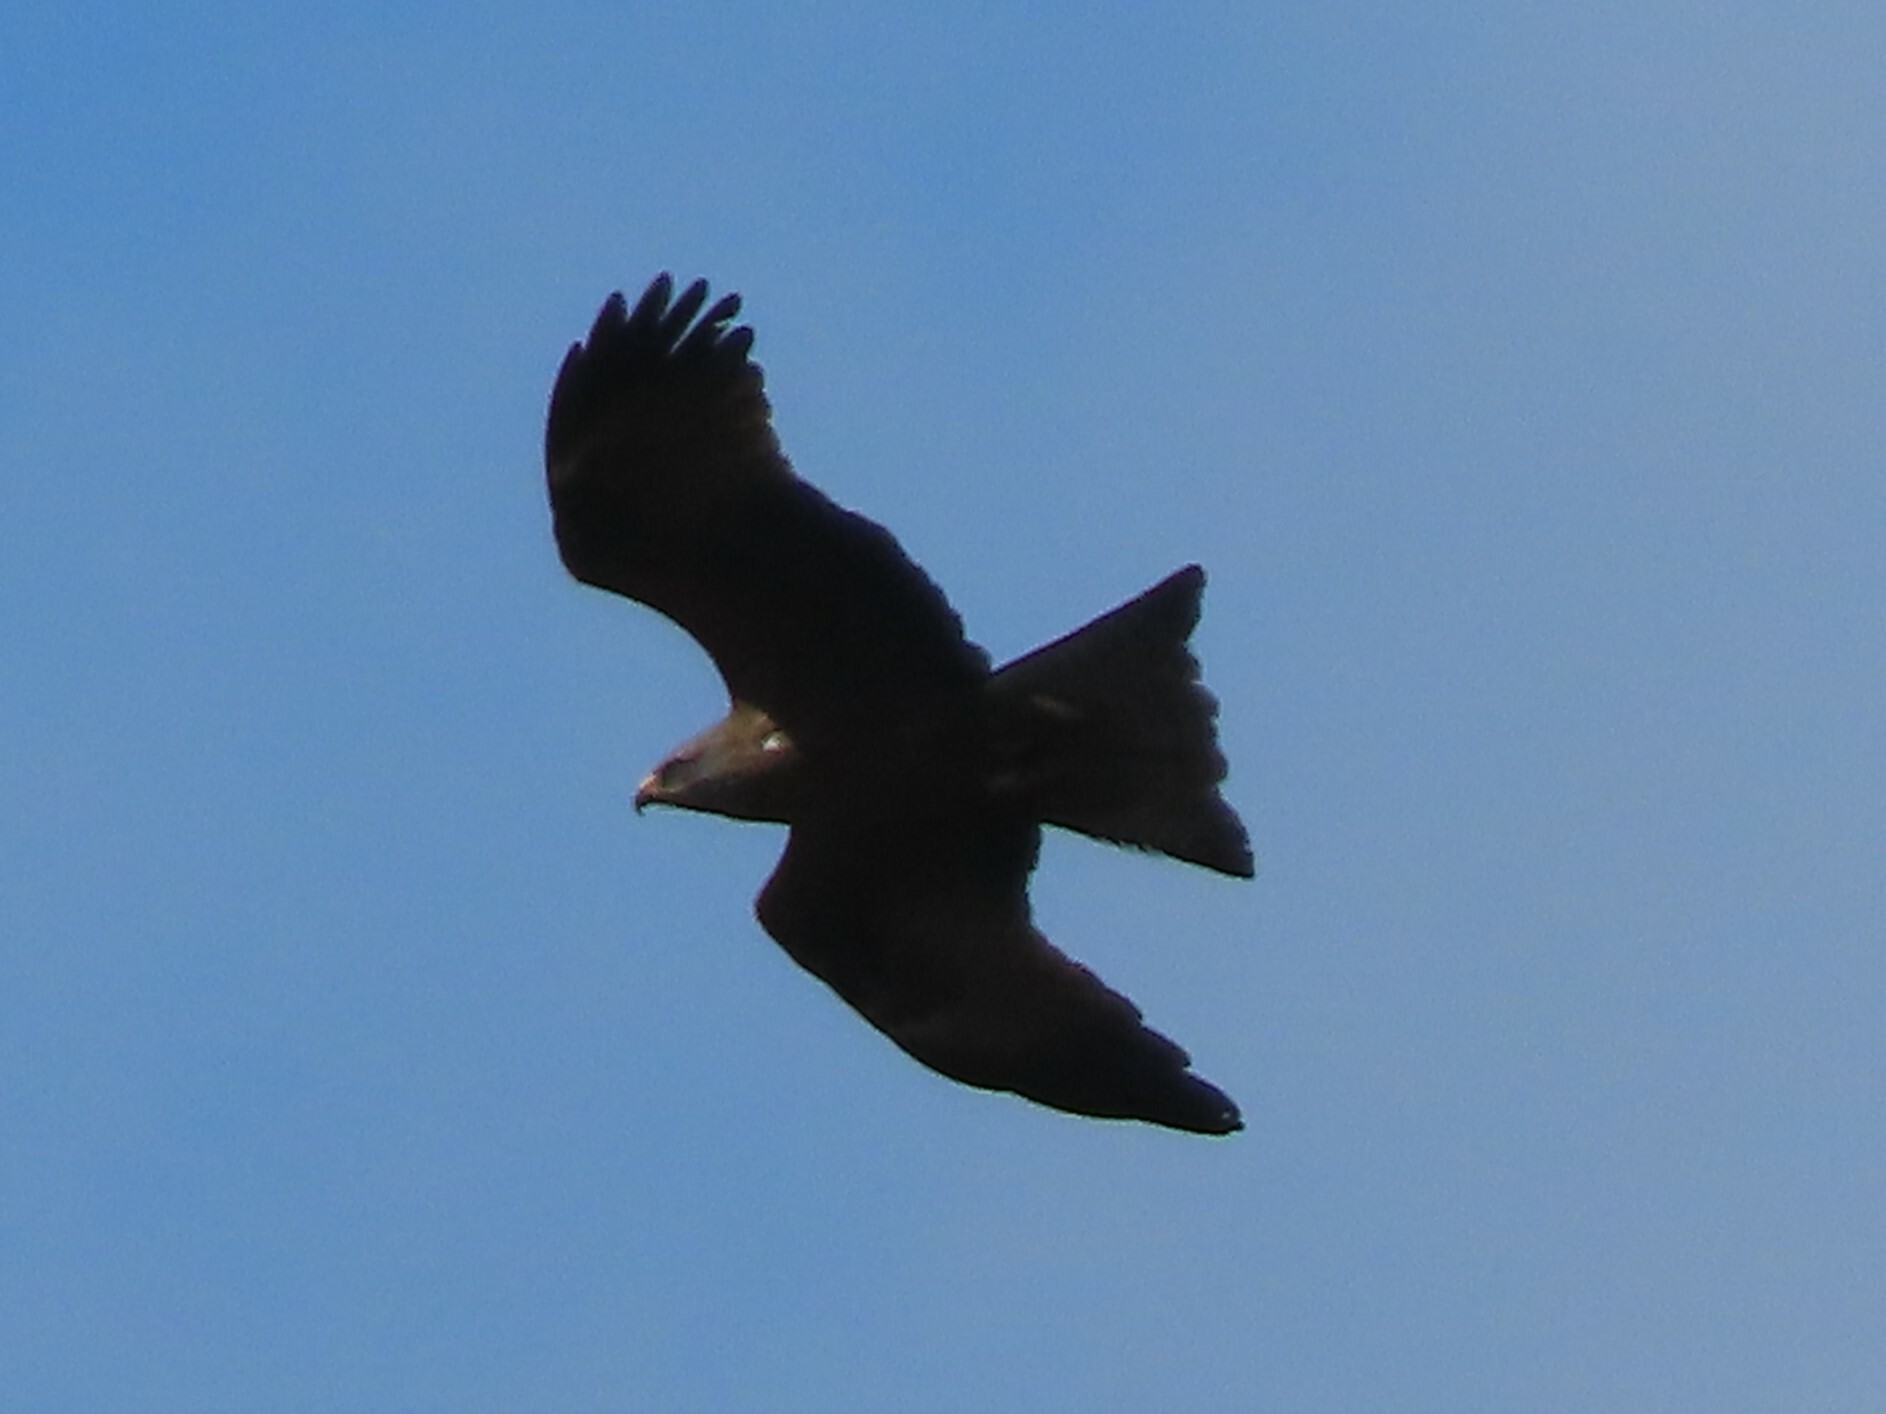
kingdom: Animalia
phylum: Chordata
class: Aves
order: Accipitriformes
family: Accipitridae
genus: Milvus
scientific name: Milvus migrans
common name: Black kite
